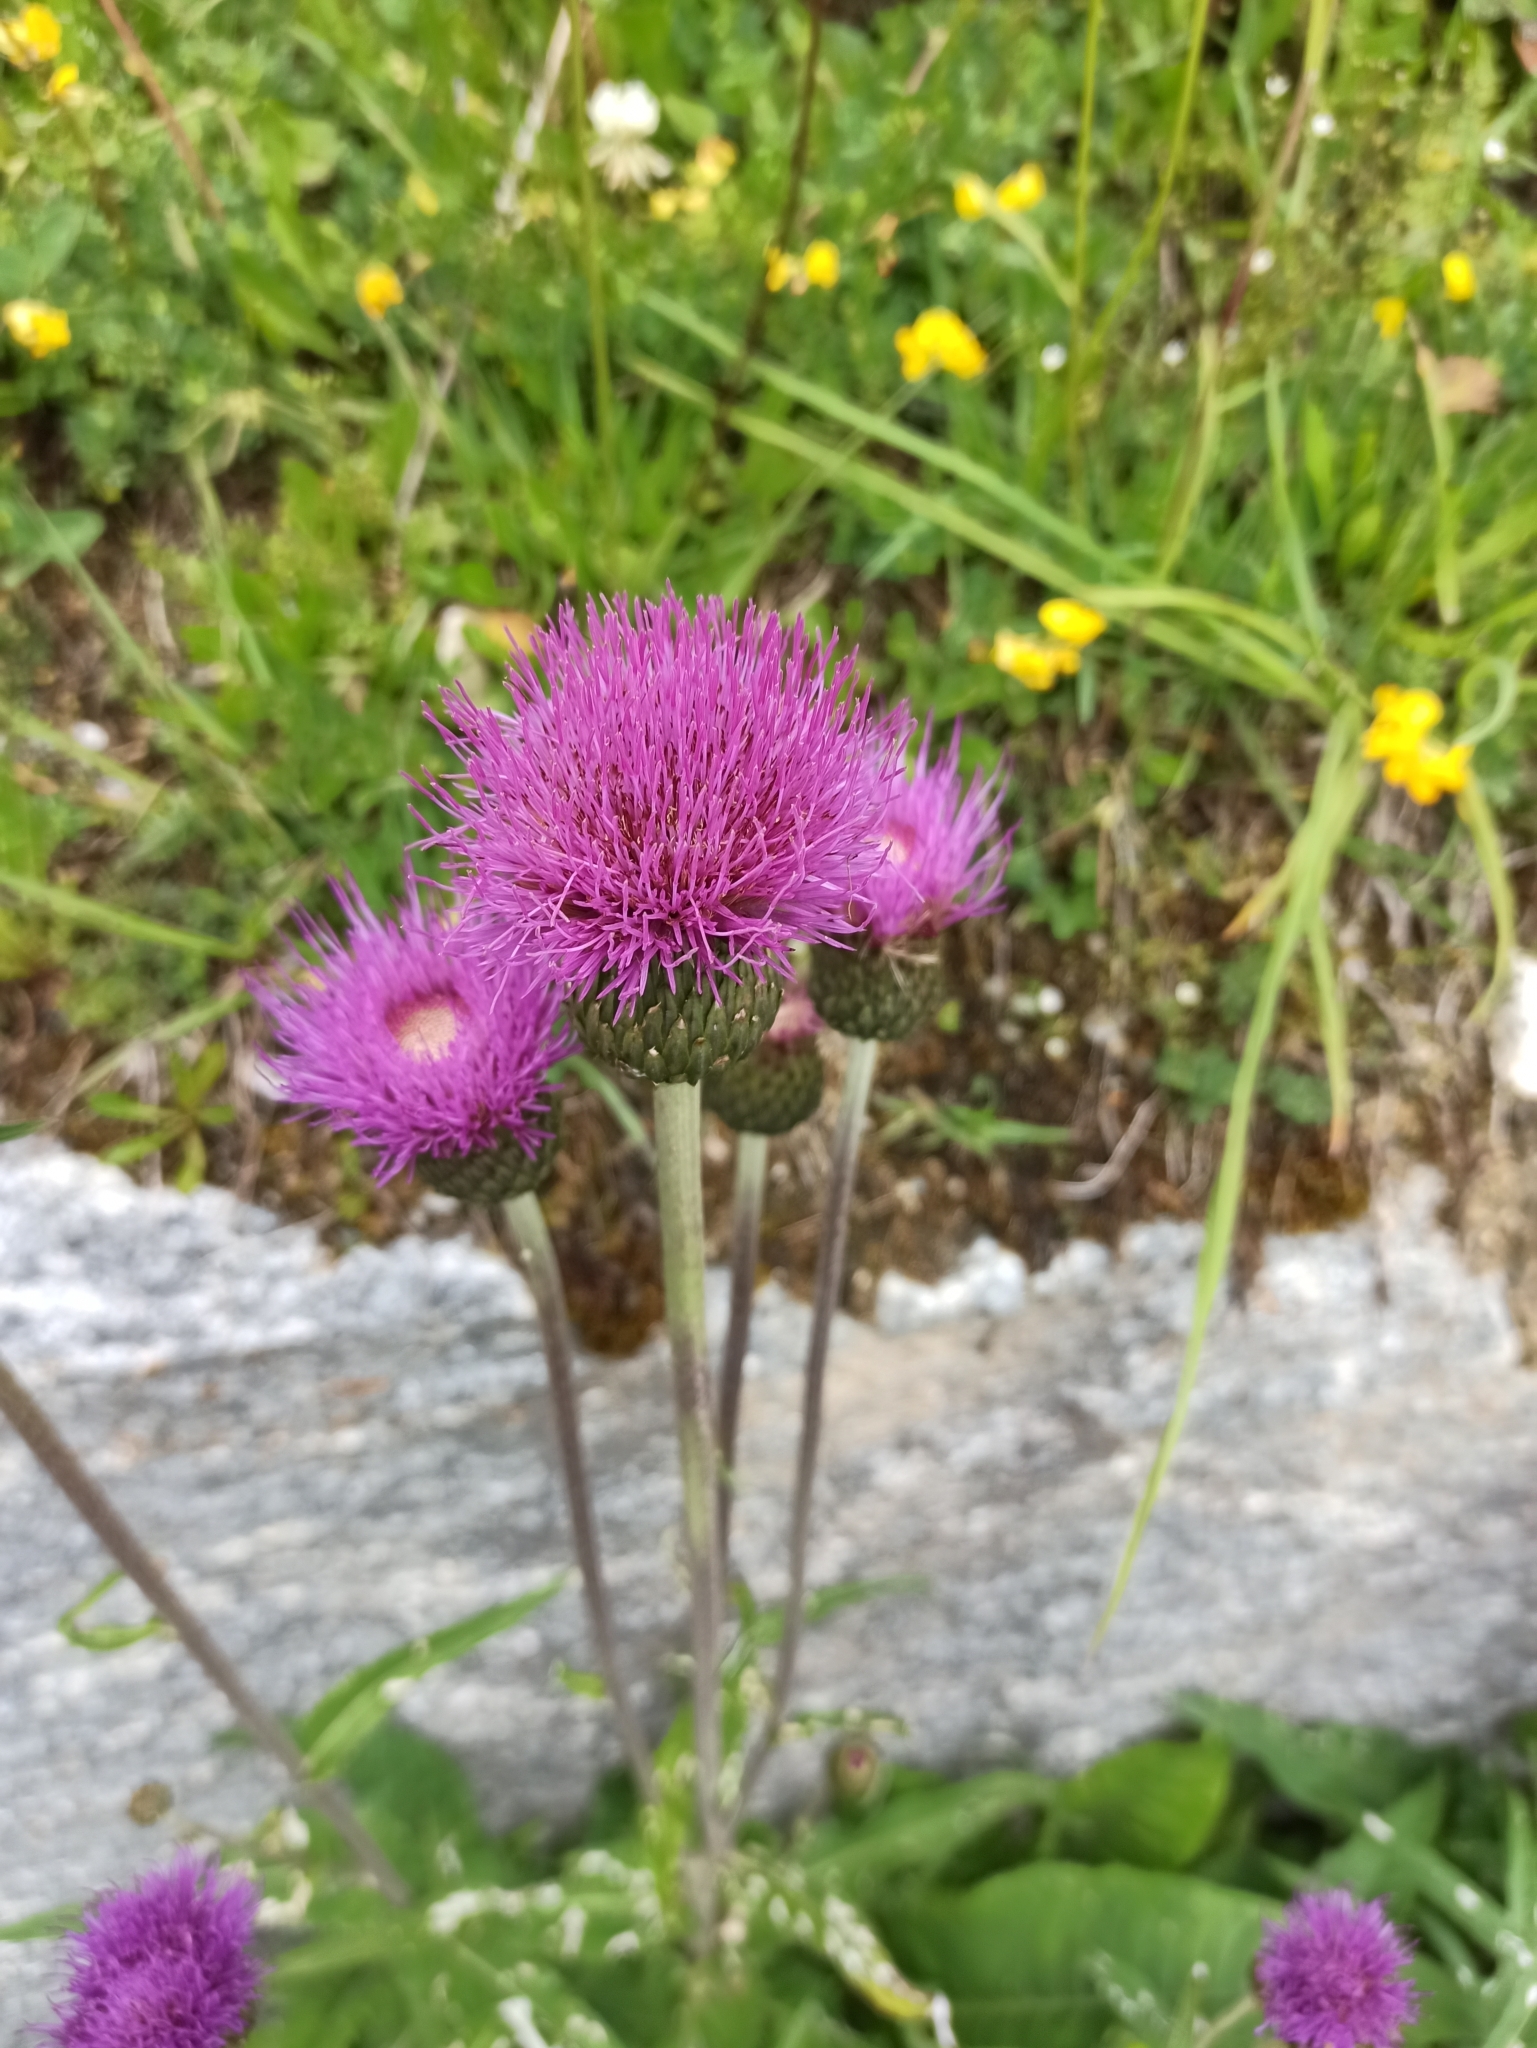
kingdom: Plantae
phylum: Tracheophyta
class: Magnoliopsida
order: Asterales
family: Asteraceae
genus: Cirsium
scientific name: Cirsium heterophyllum
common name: Melancholy thistle
